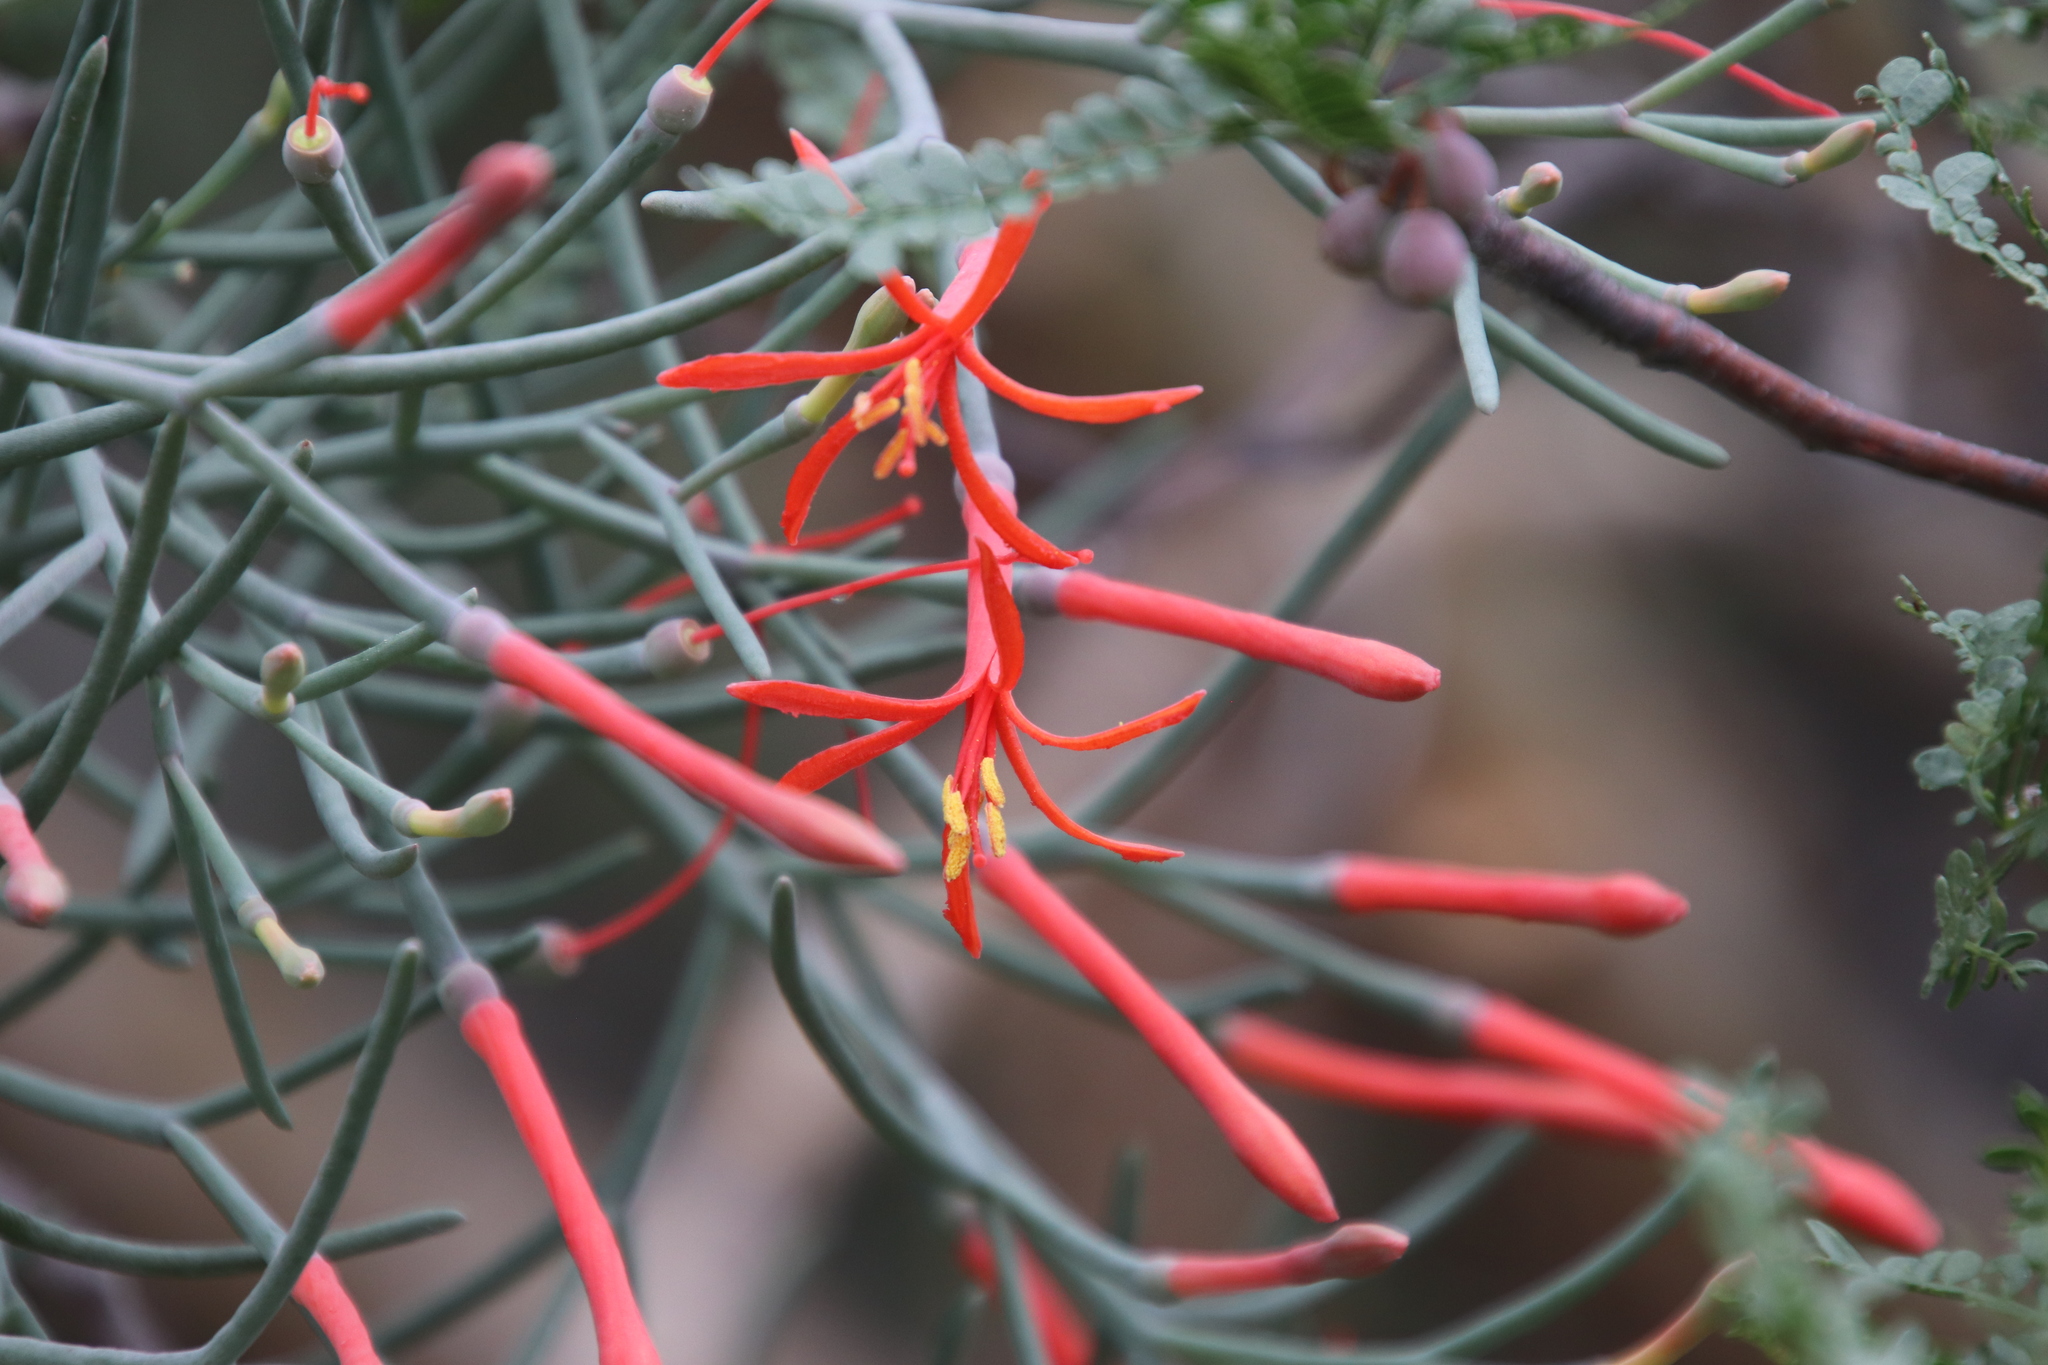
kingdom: Plantae
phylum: Tracheophyta
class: Magnoliopsida
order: Santalales
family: Loranthaceae
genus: Psittacanthus
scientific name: Psittacanthus sonorae
